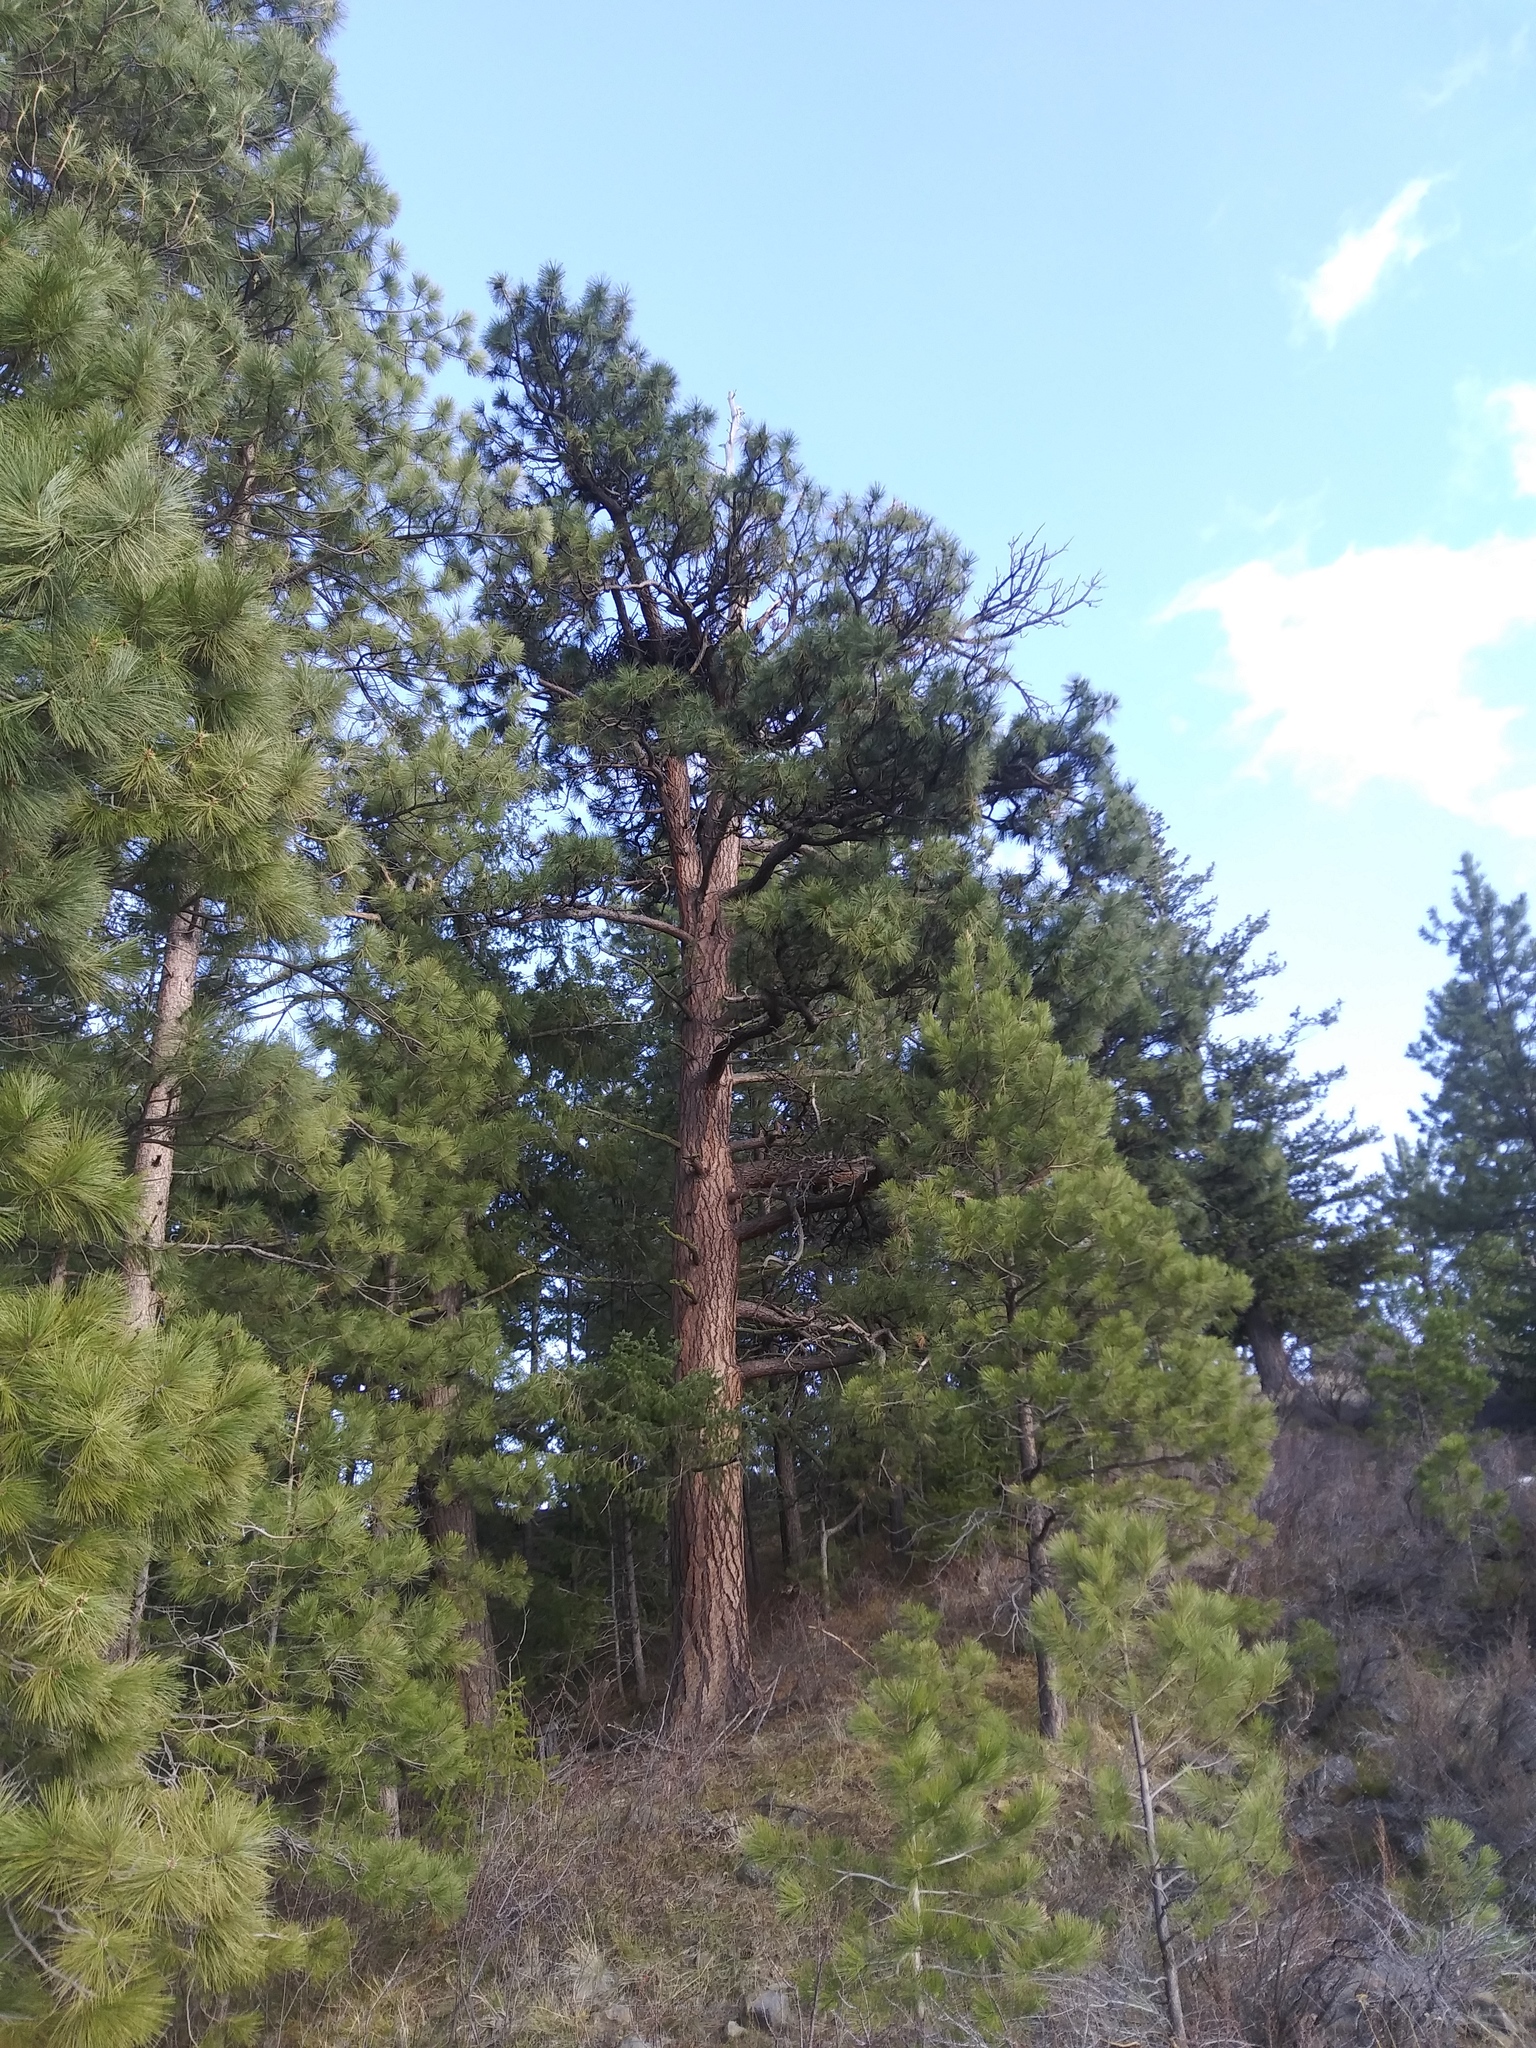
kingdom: Plantae
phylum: Tracheophyta
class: Pinopsida
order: Pinales
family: Pinaceae
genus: Pinus
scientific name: Pinus ponderosa
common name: Western yellow-pine
